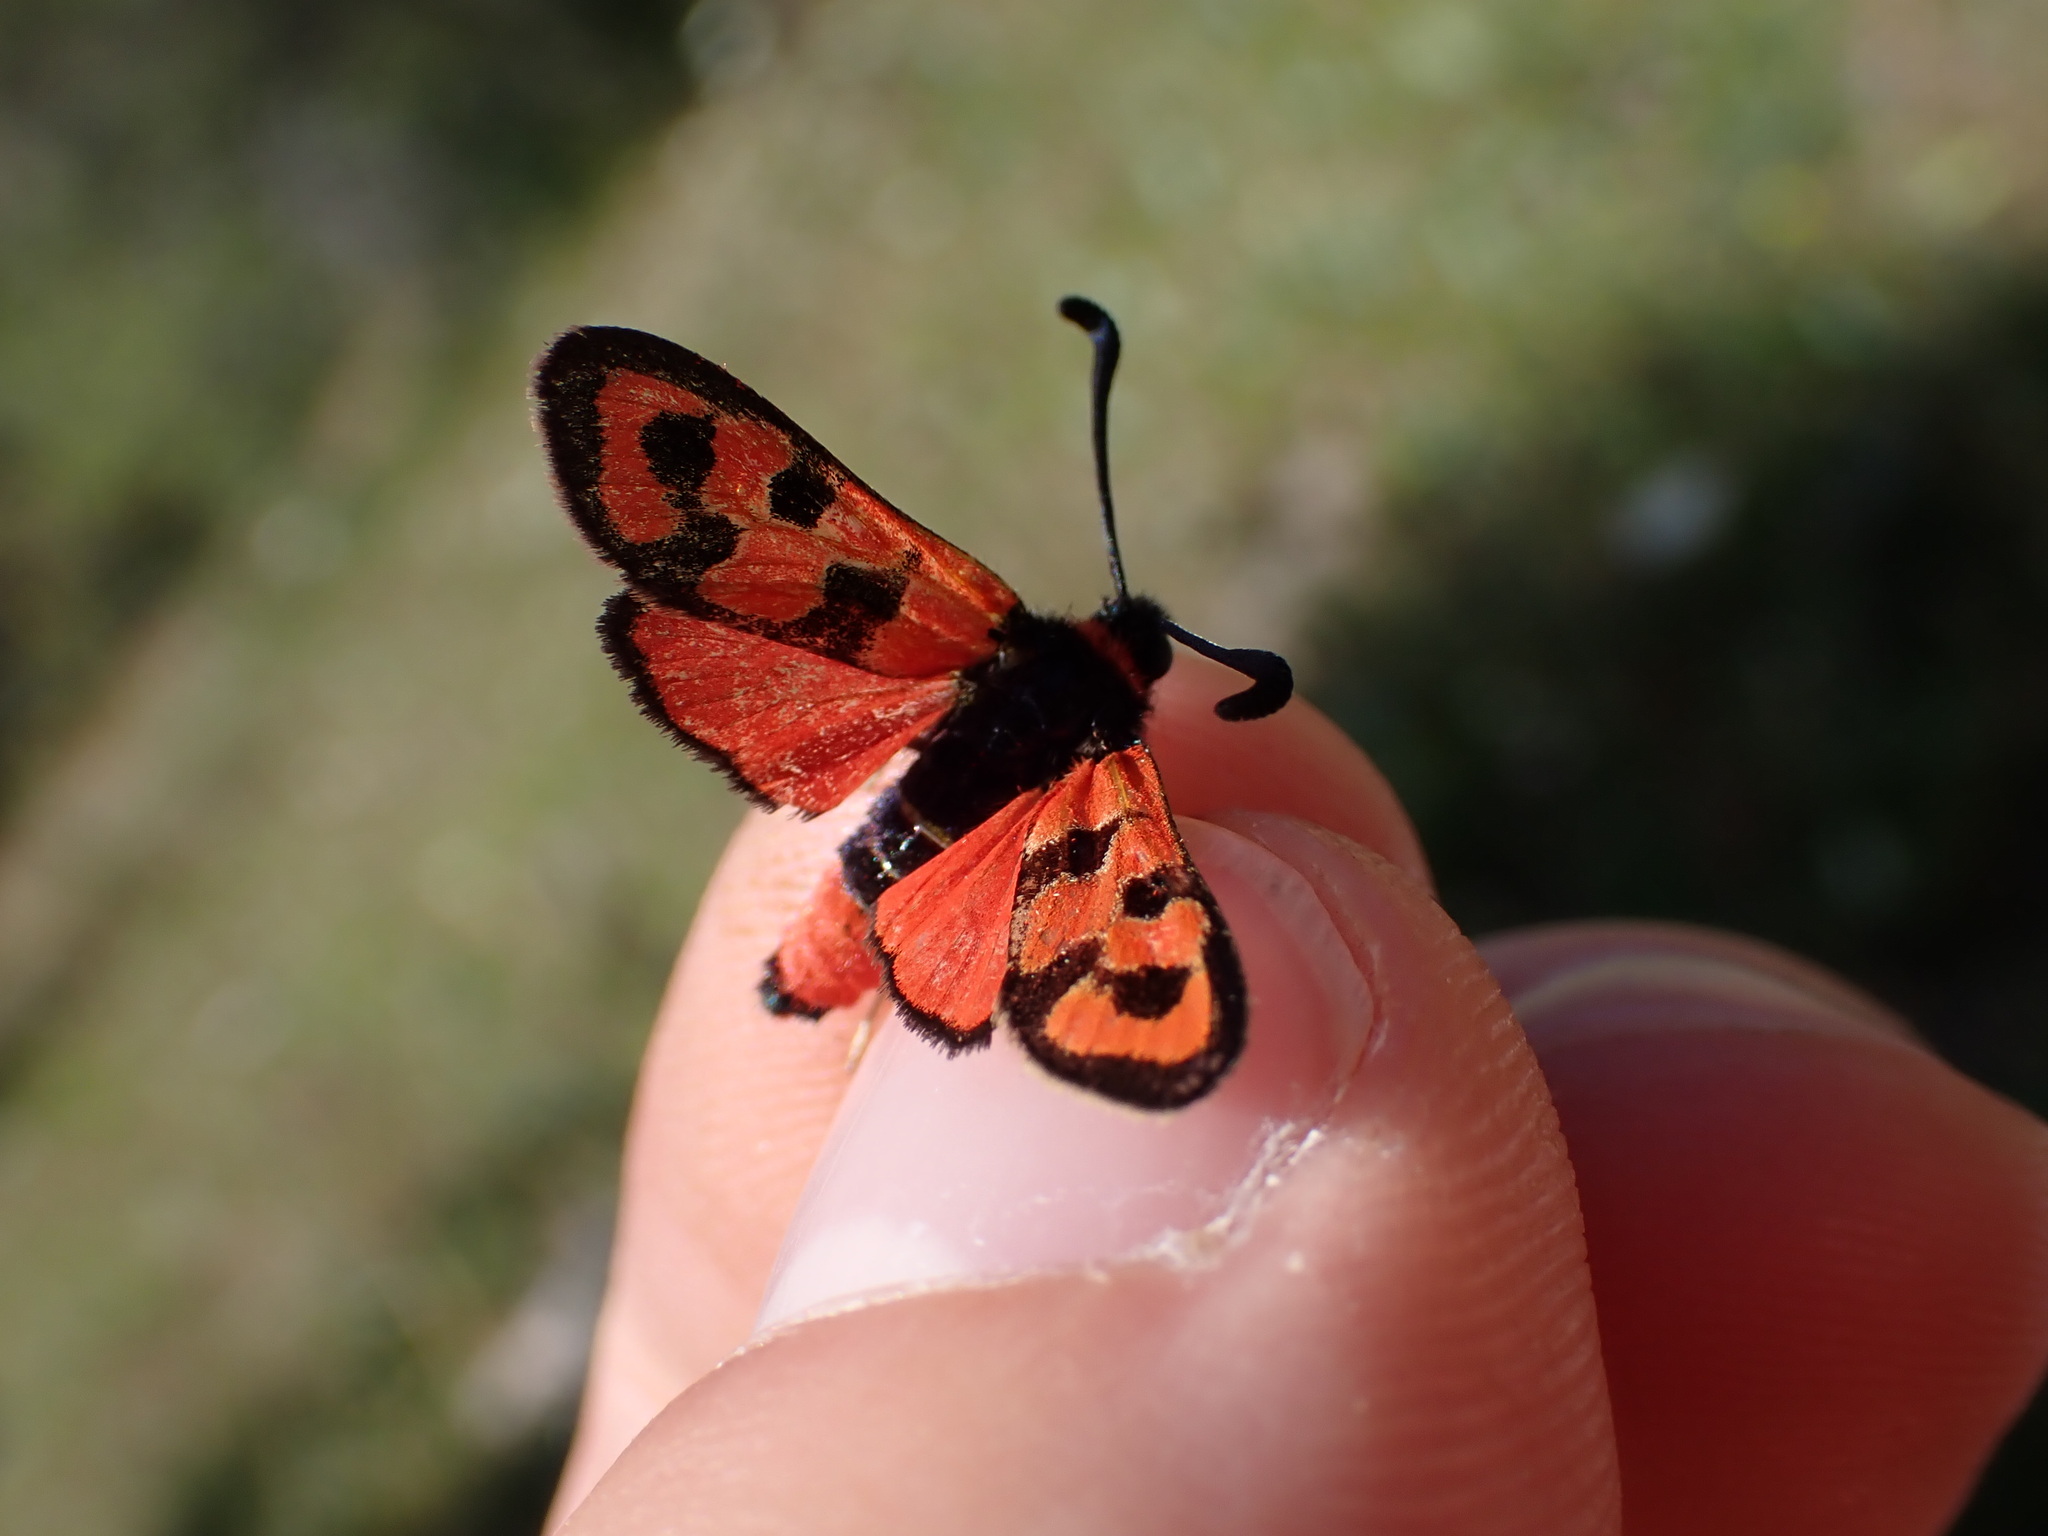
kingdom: Animalia
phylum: Arthropoda
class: Insecta
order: Lepidoptera
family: Zygaenidae
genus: Zygaena
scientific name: Zygaena fausta
